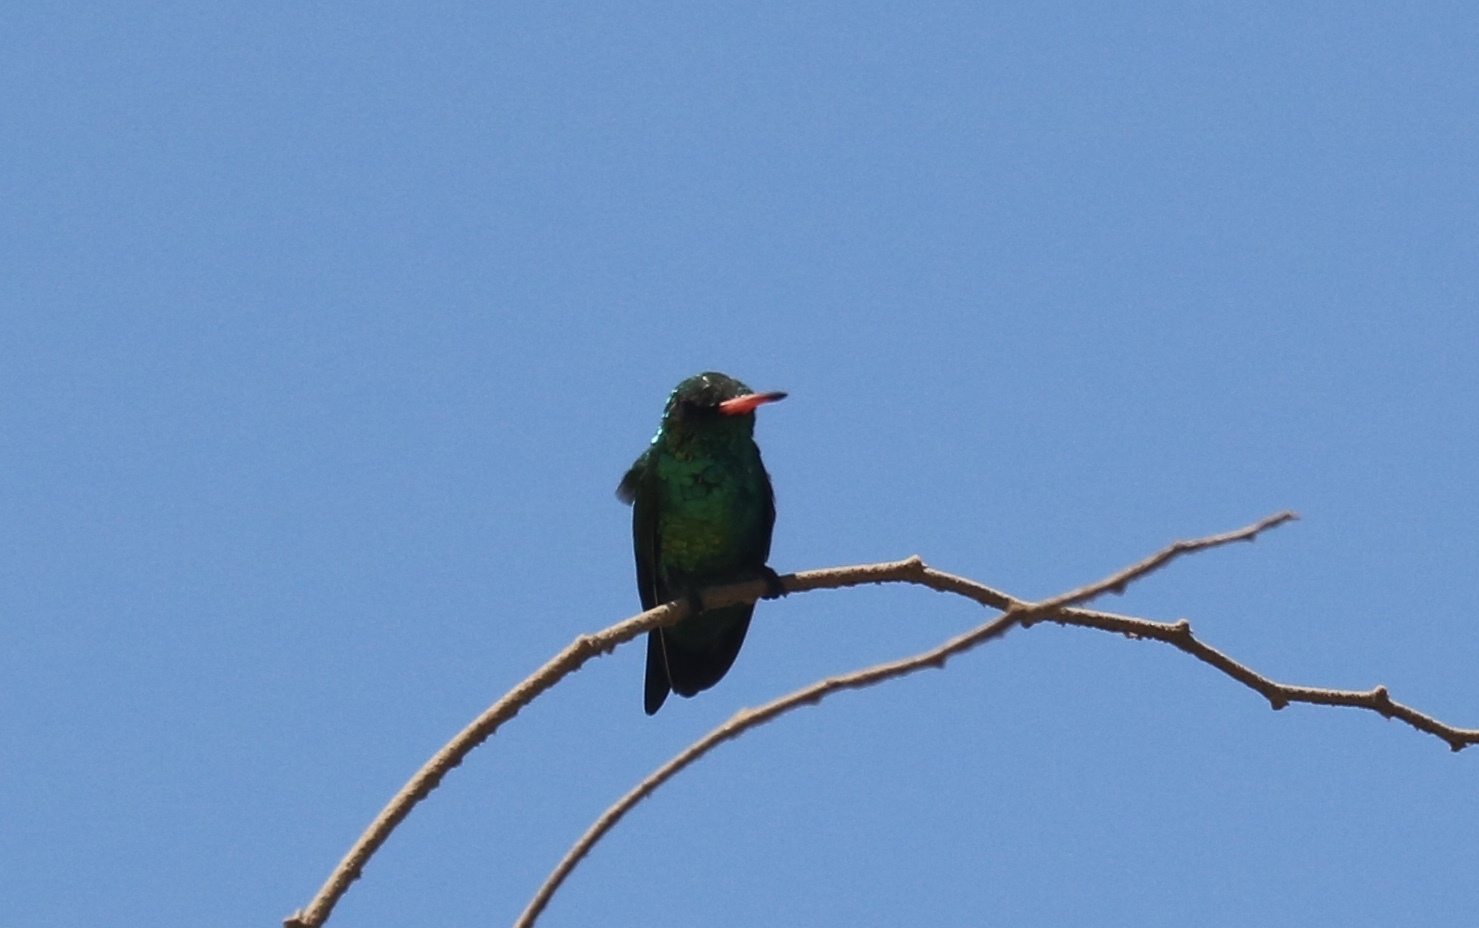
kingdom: Animalia
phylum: Chordata
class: Aves
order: Apodiformes
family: Trochilidae
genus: Chlorostilbon
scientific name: Chlorostilbon lucidus
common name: Glittering-bellied emerald
